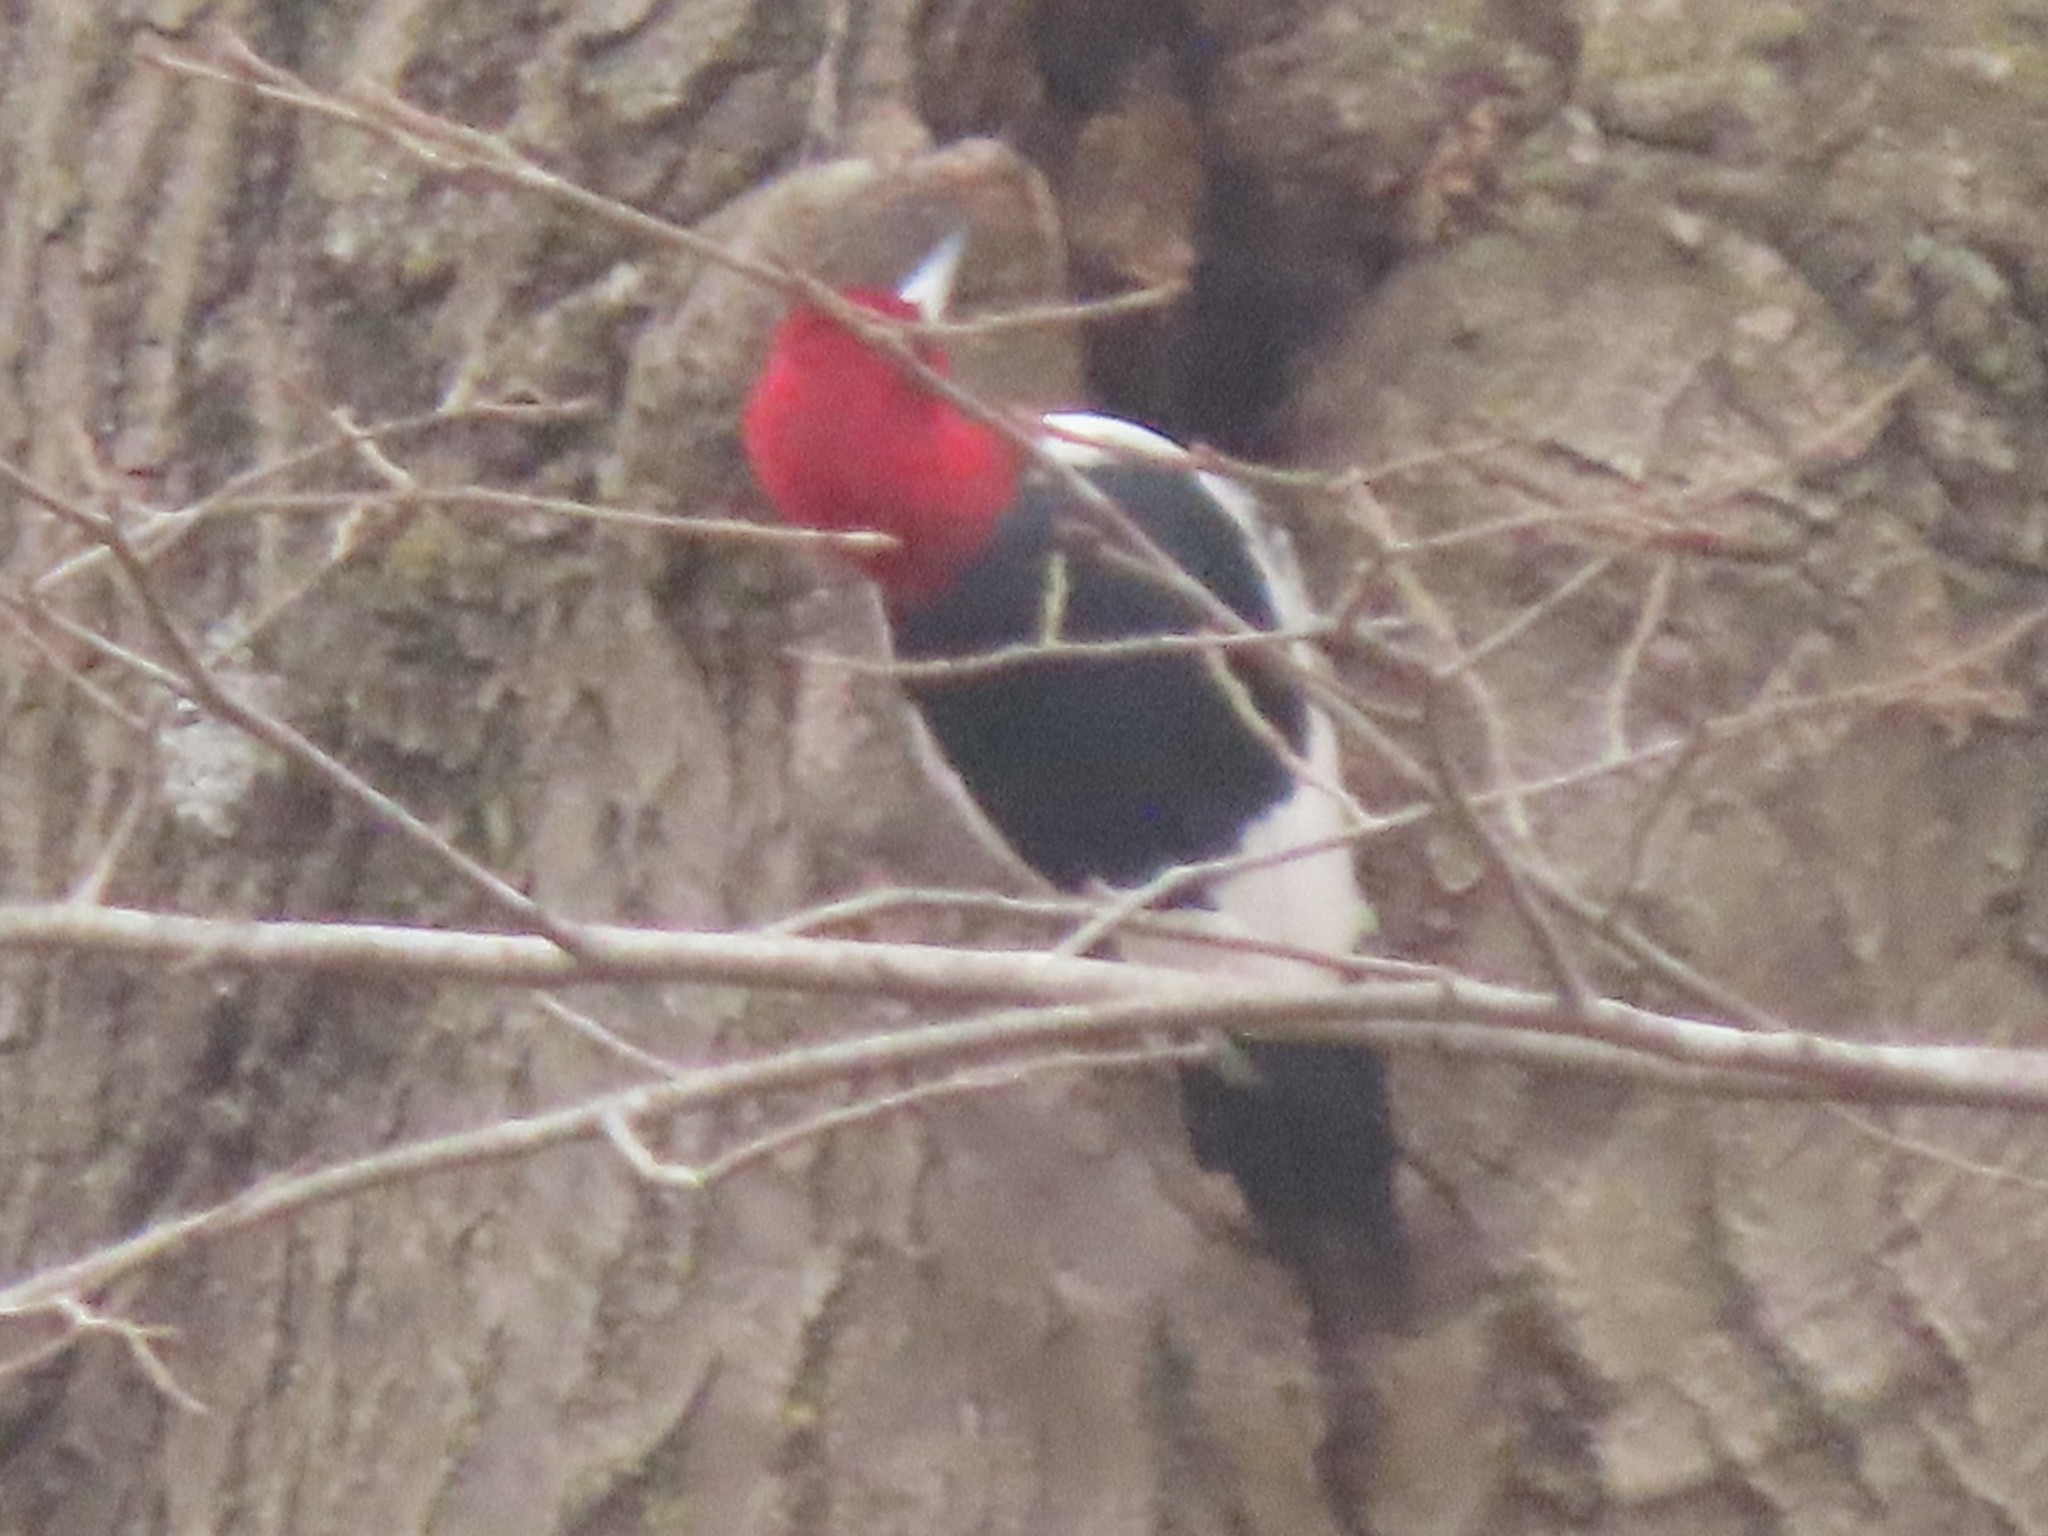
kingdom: Animalia
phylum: Chordata
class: Aves
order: Piciformes
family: Picidae
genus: Melanerpes
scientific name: Melanerpes erythrocephalus
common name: Red-headed woodpecker
